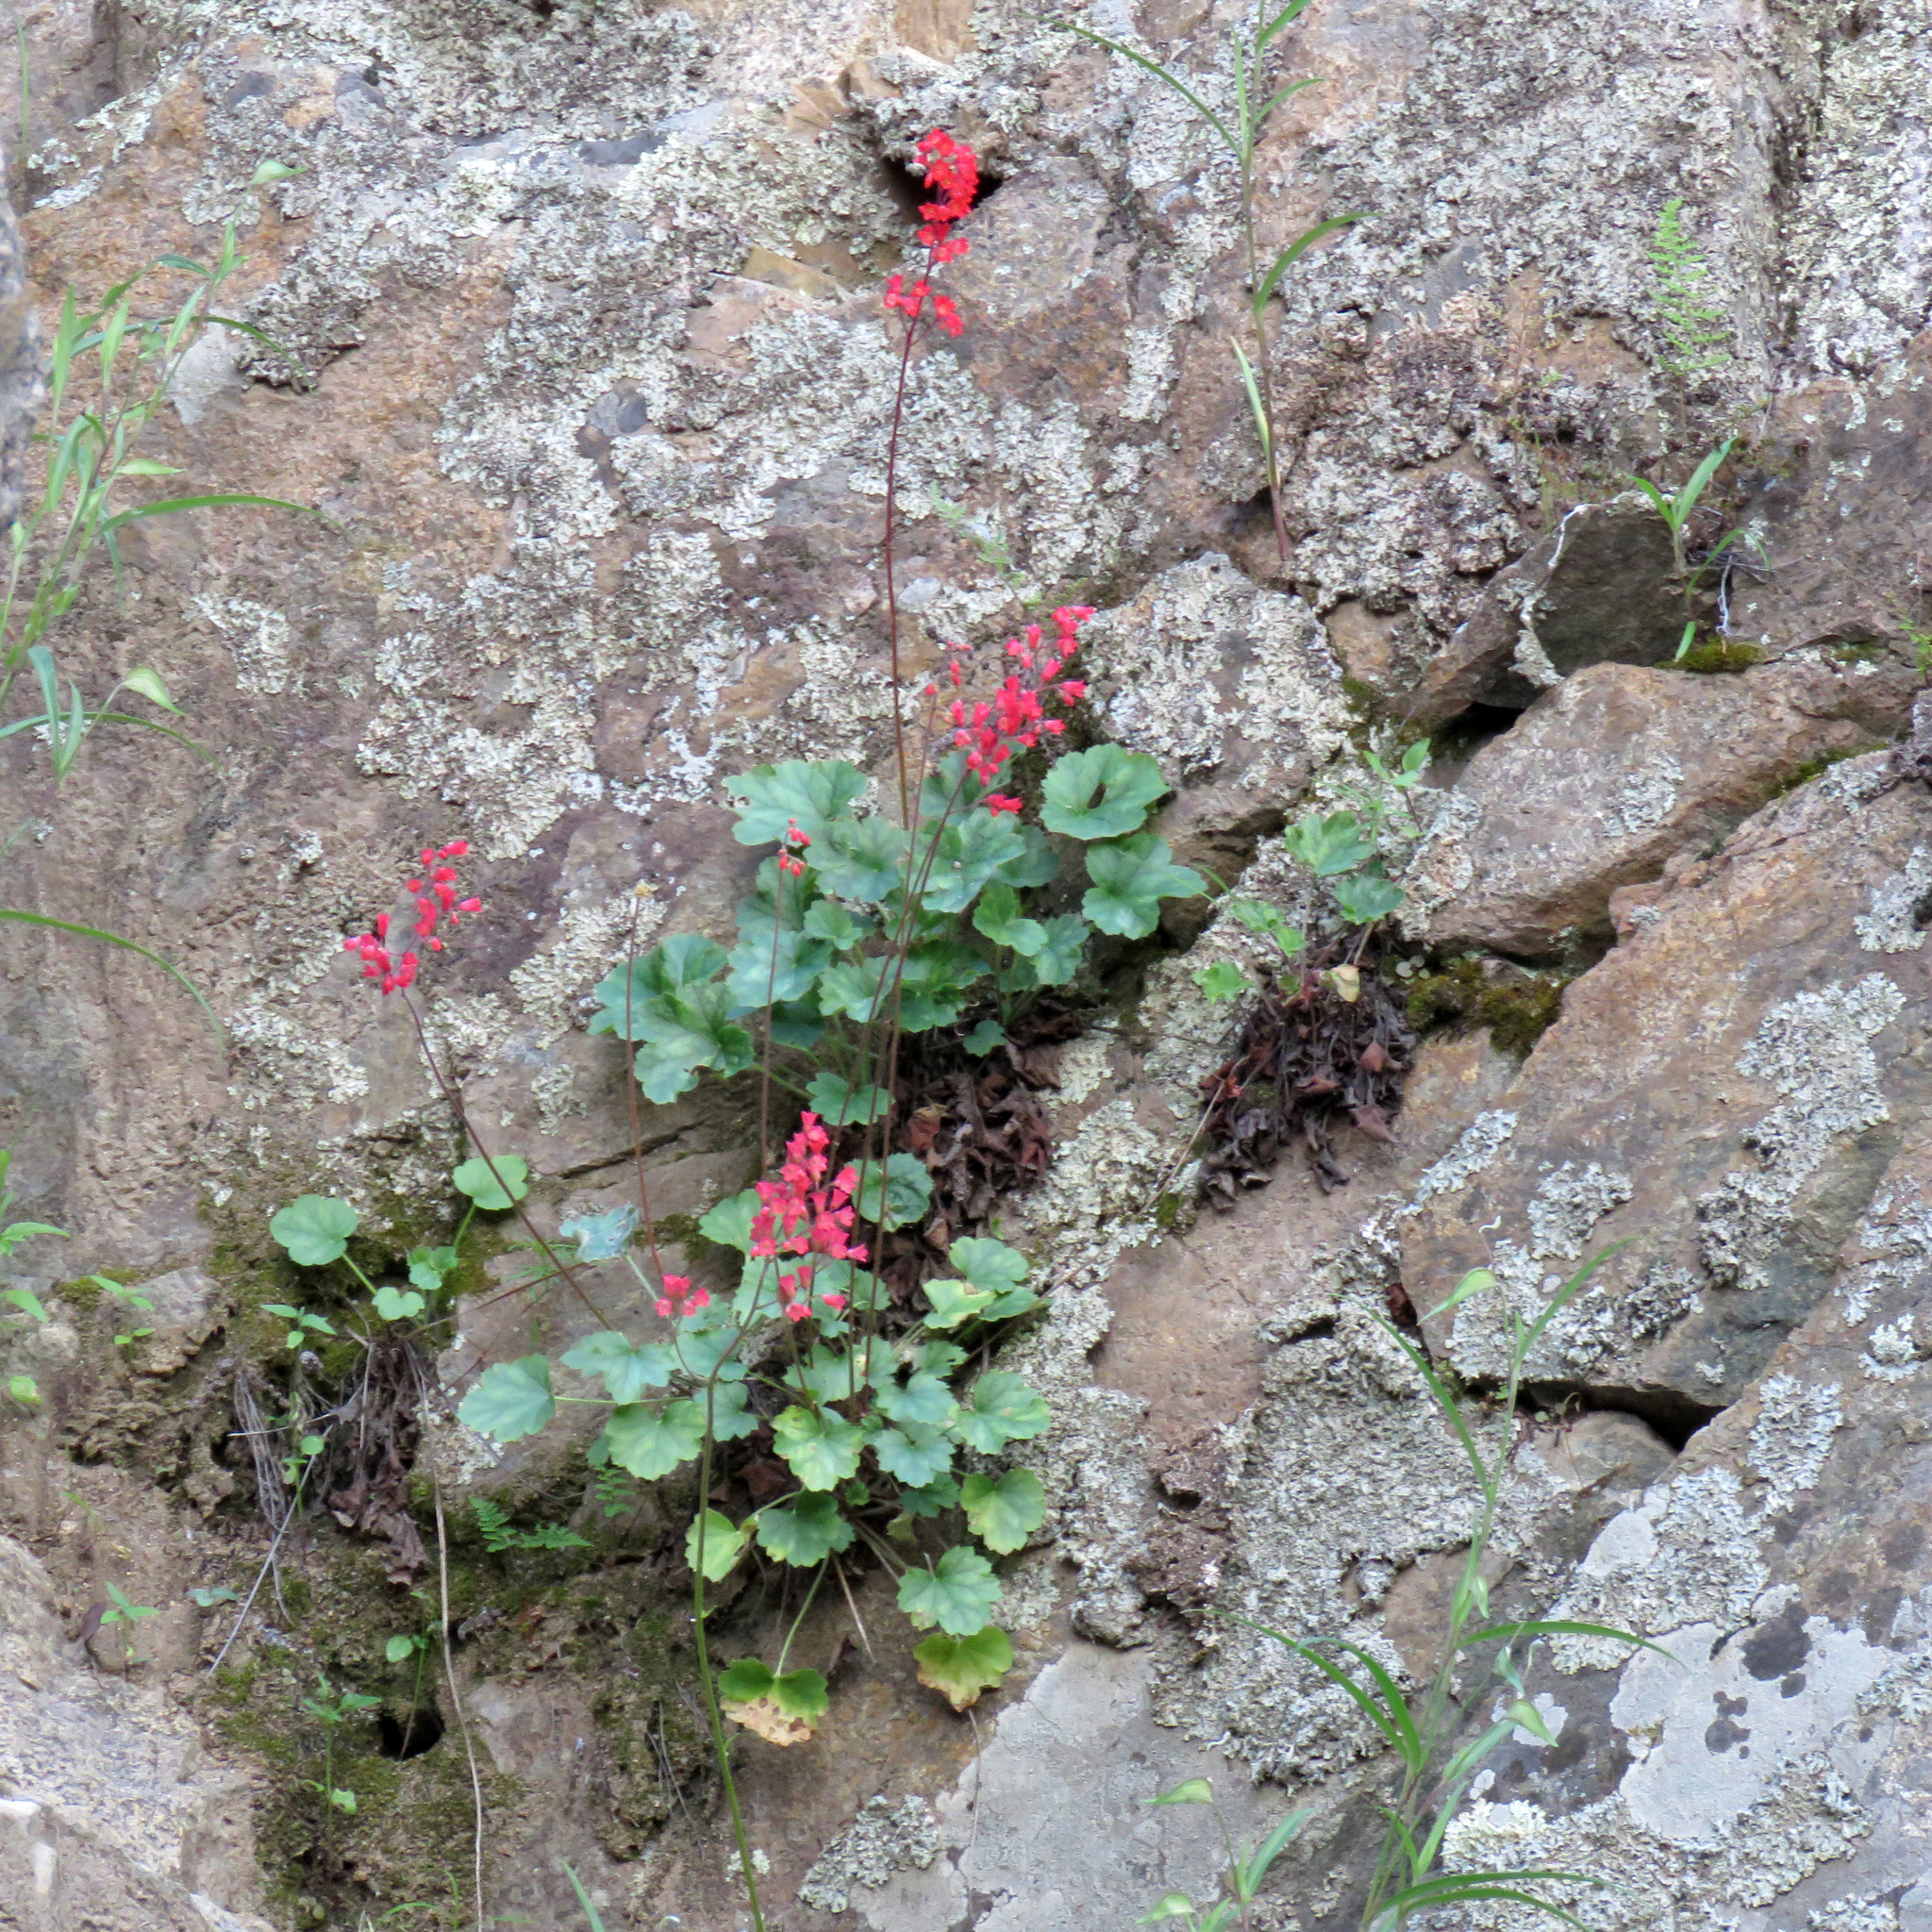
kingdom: Plantae
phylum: Tracheophyta
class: Magnoliopsida
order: Saxifragales
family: Saxifragaceae
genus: Heuchera
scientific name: Heuchera sanguinea
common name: Coralbells
